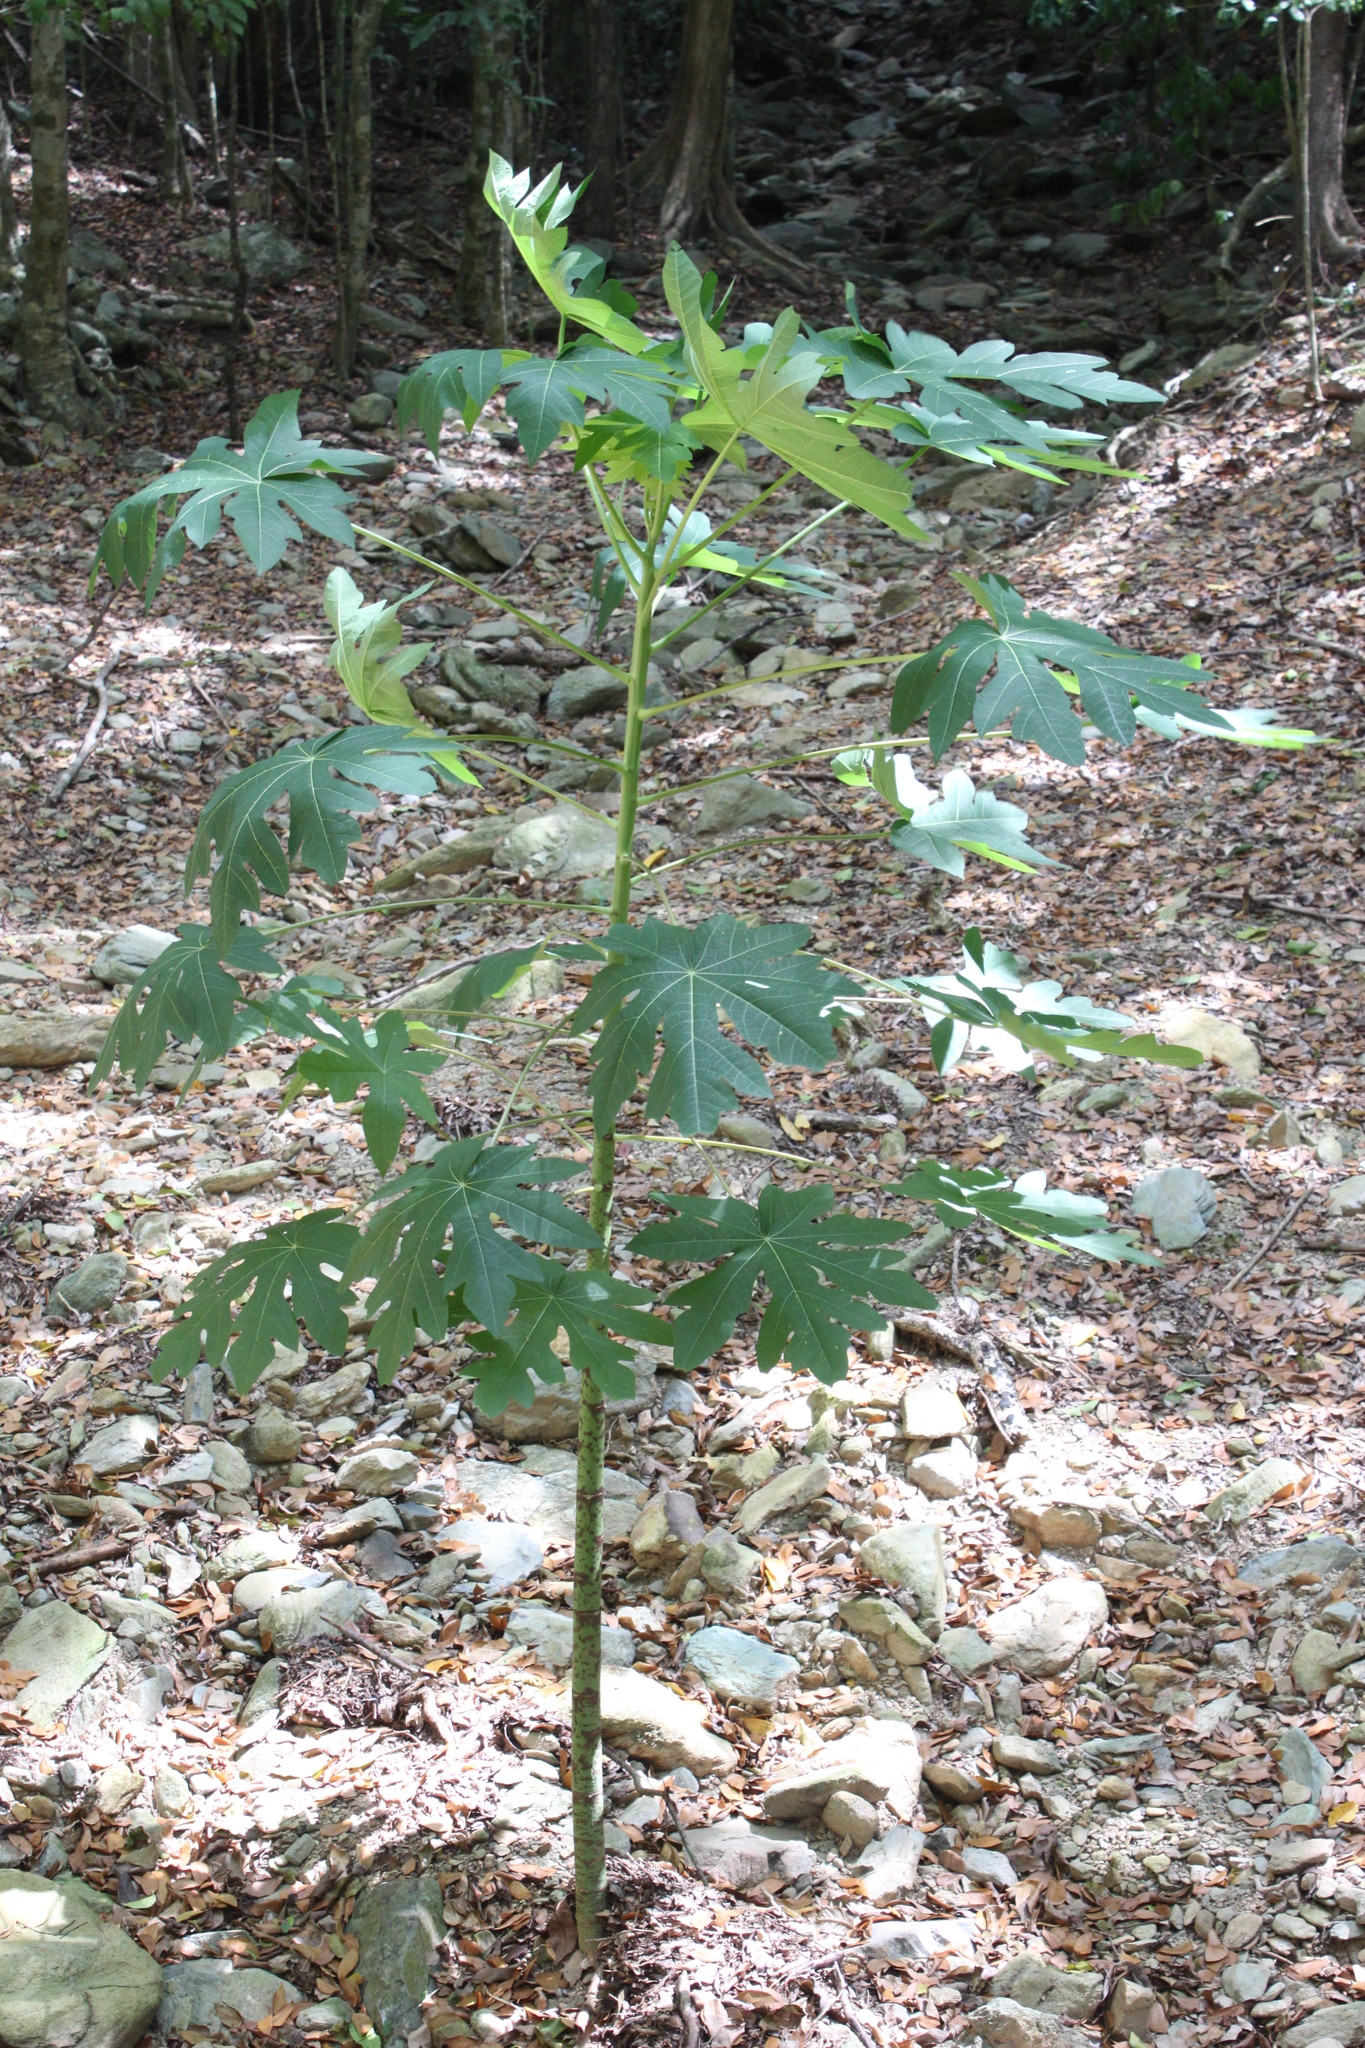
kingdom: Plantae
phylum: Tracheophyta
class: Magnoliopsida
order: Brassicales
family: Caricaceae
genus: Carica
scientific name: Carica papaya
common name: Papaya
